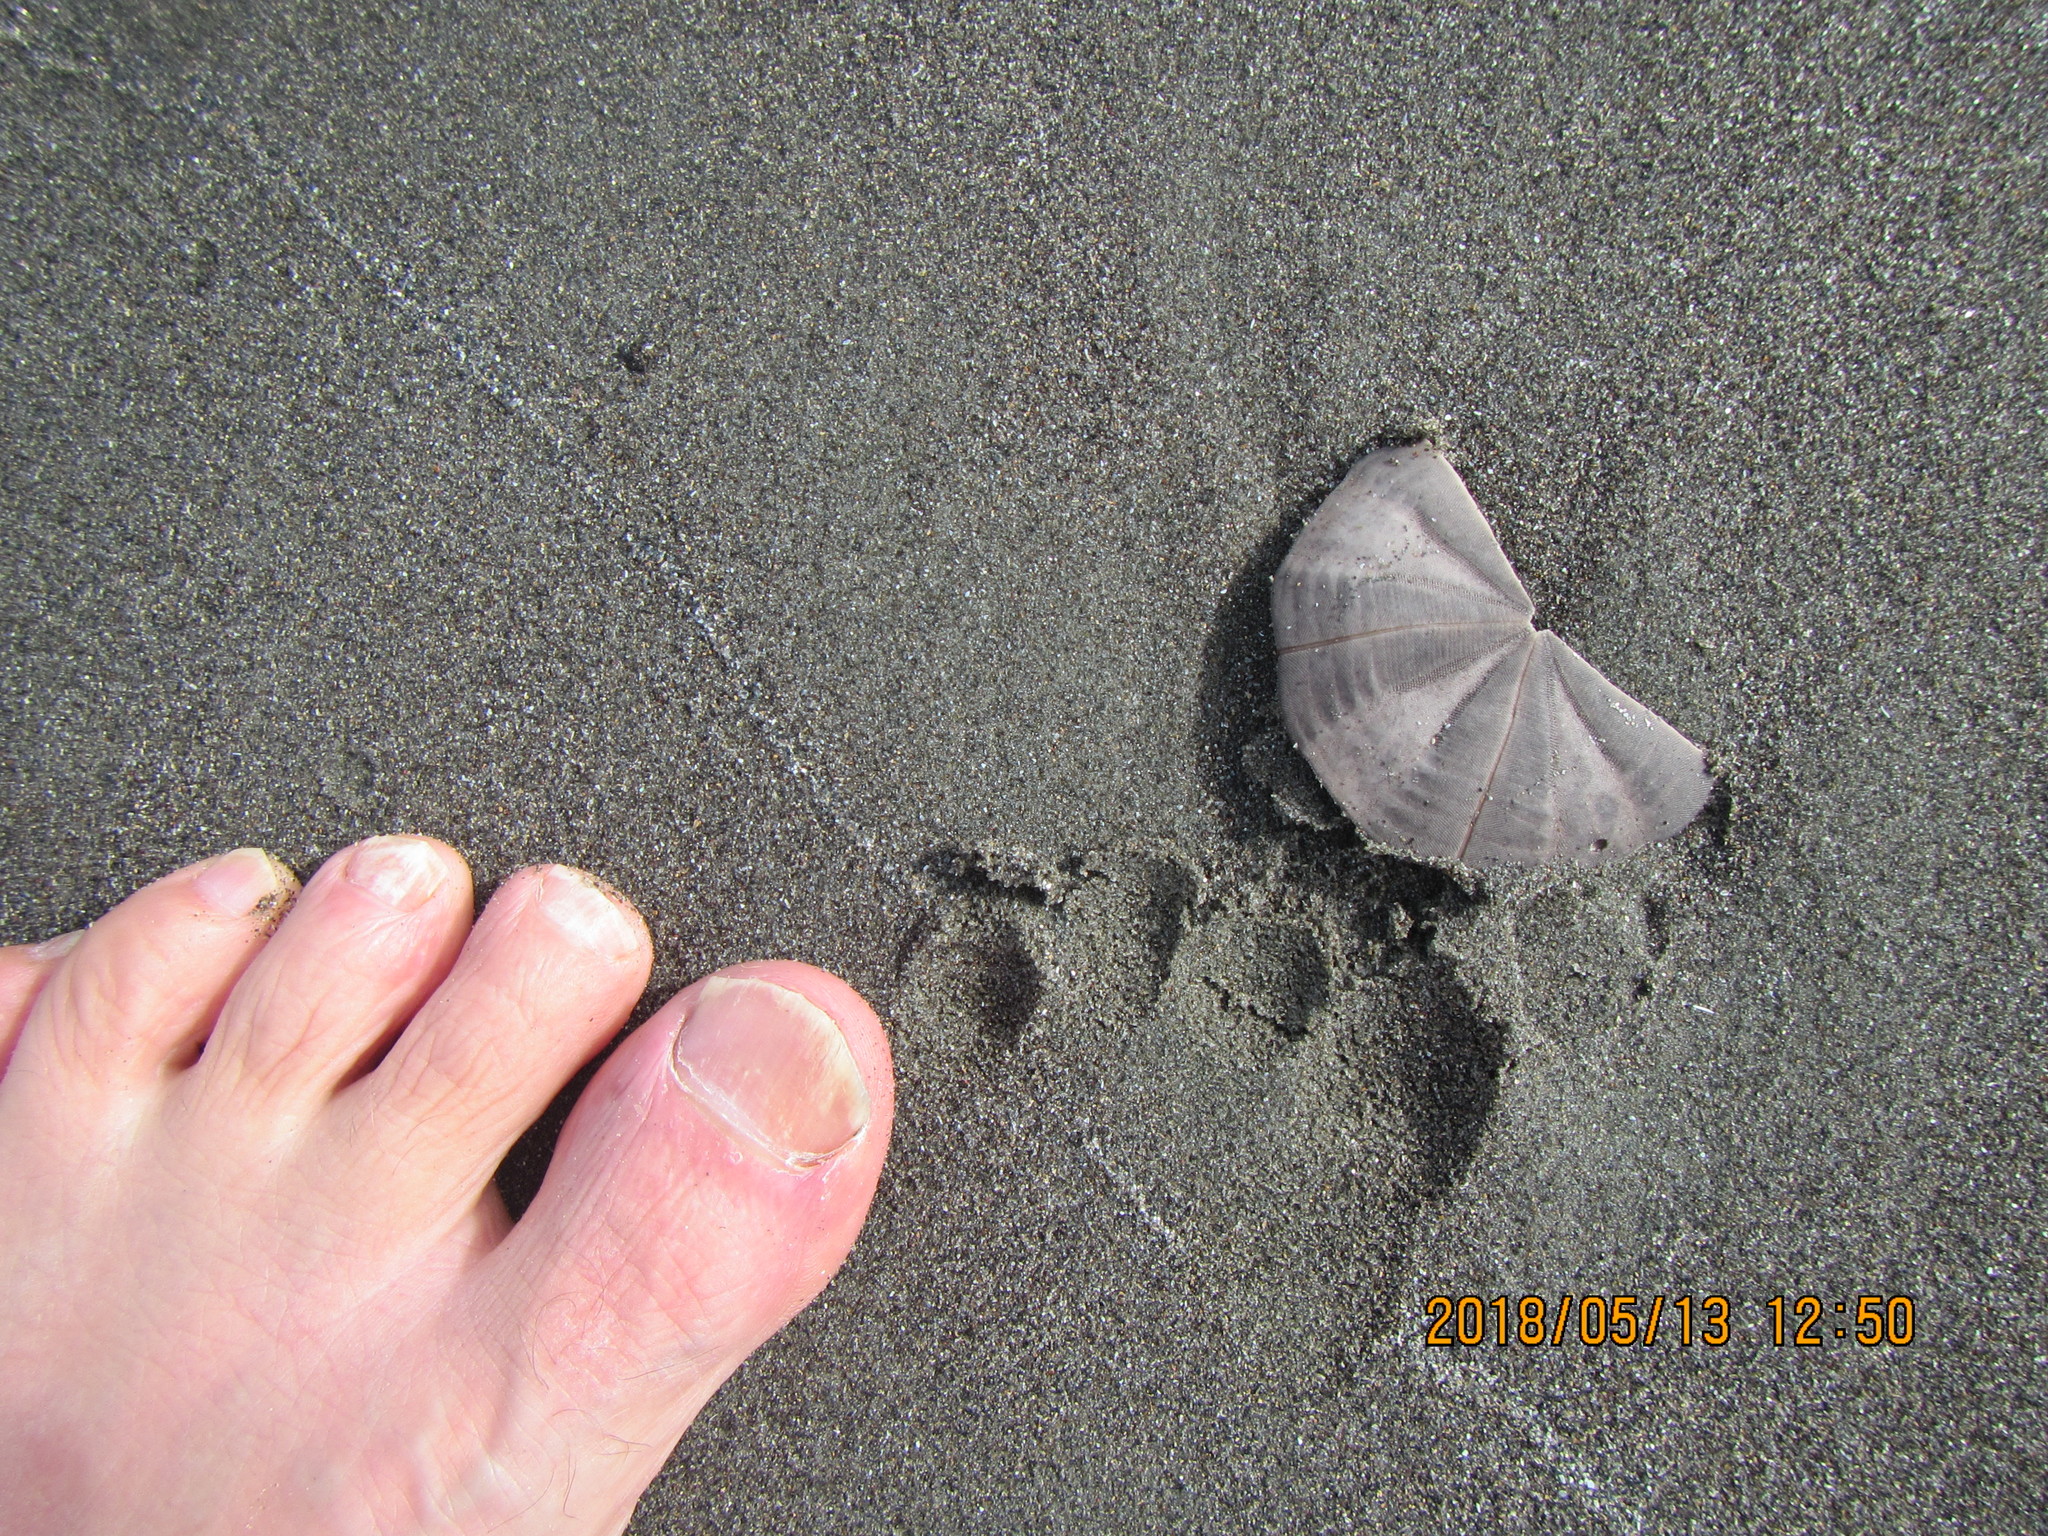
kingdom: Animalia
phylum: Echinodermata
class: Echinoidea
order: Clypeasteroida
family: Clypeasteridae
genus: Fellaster
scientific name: Fellaster zelandiae
